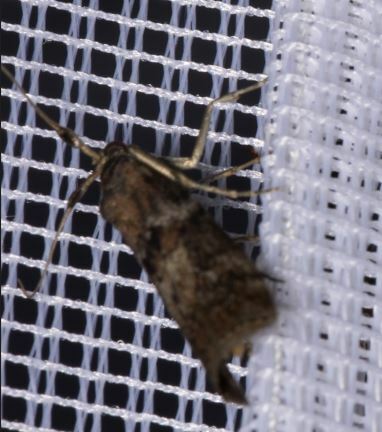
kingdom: Animalia
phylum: Arthropoda
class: Insecta
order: Lepidoptera
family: Pyralidae
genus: Phycita
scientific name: Phycita roborella
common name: Dotted oak knot-horn
